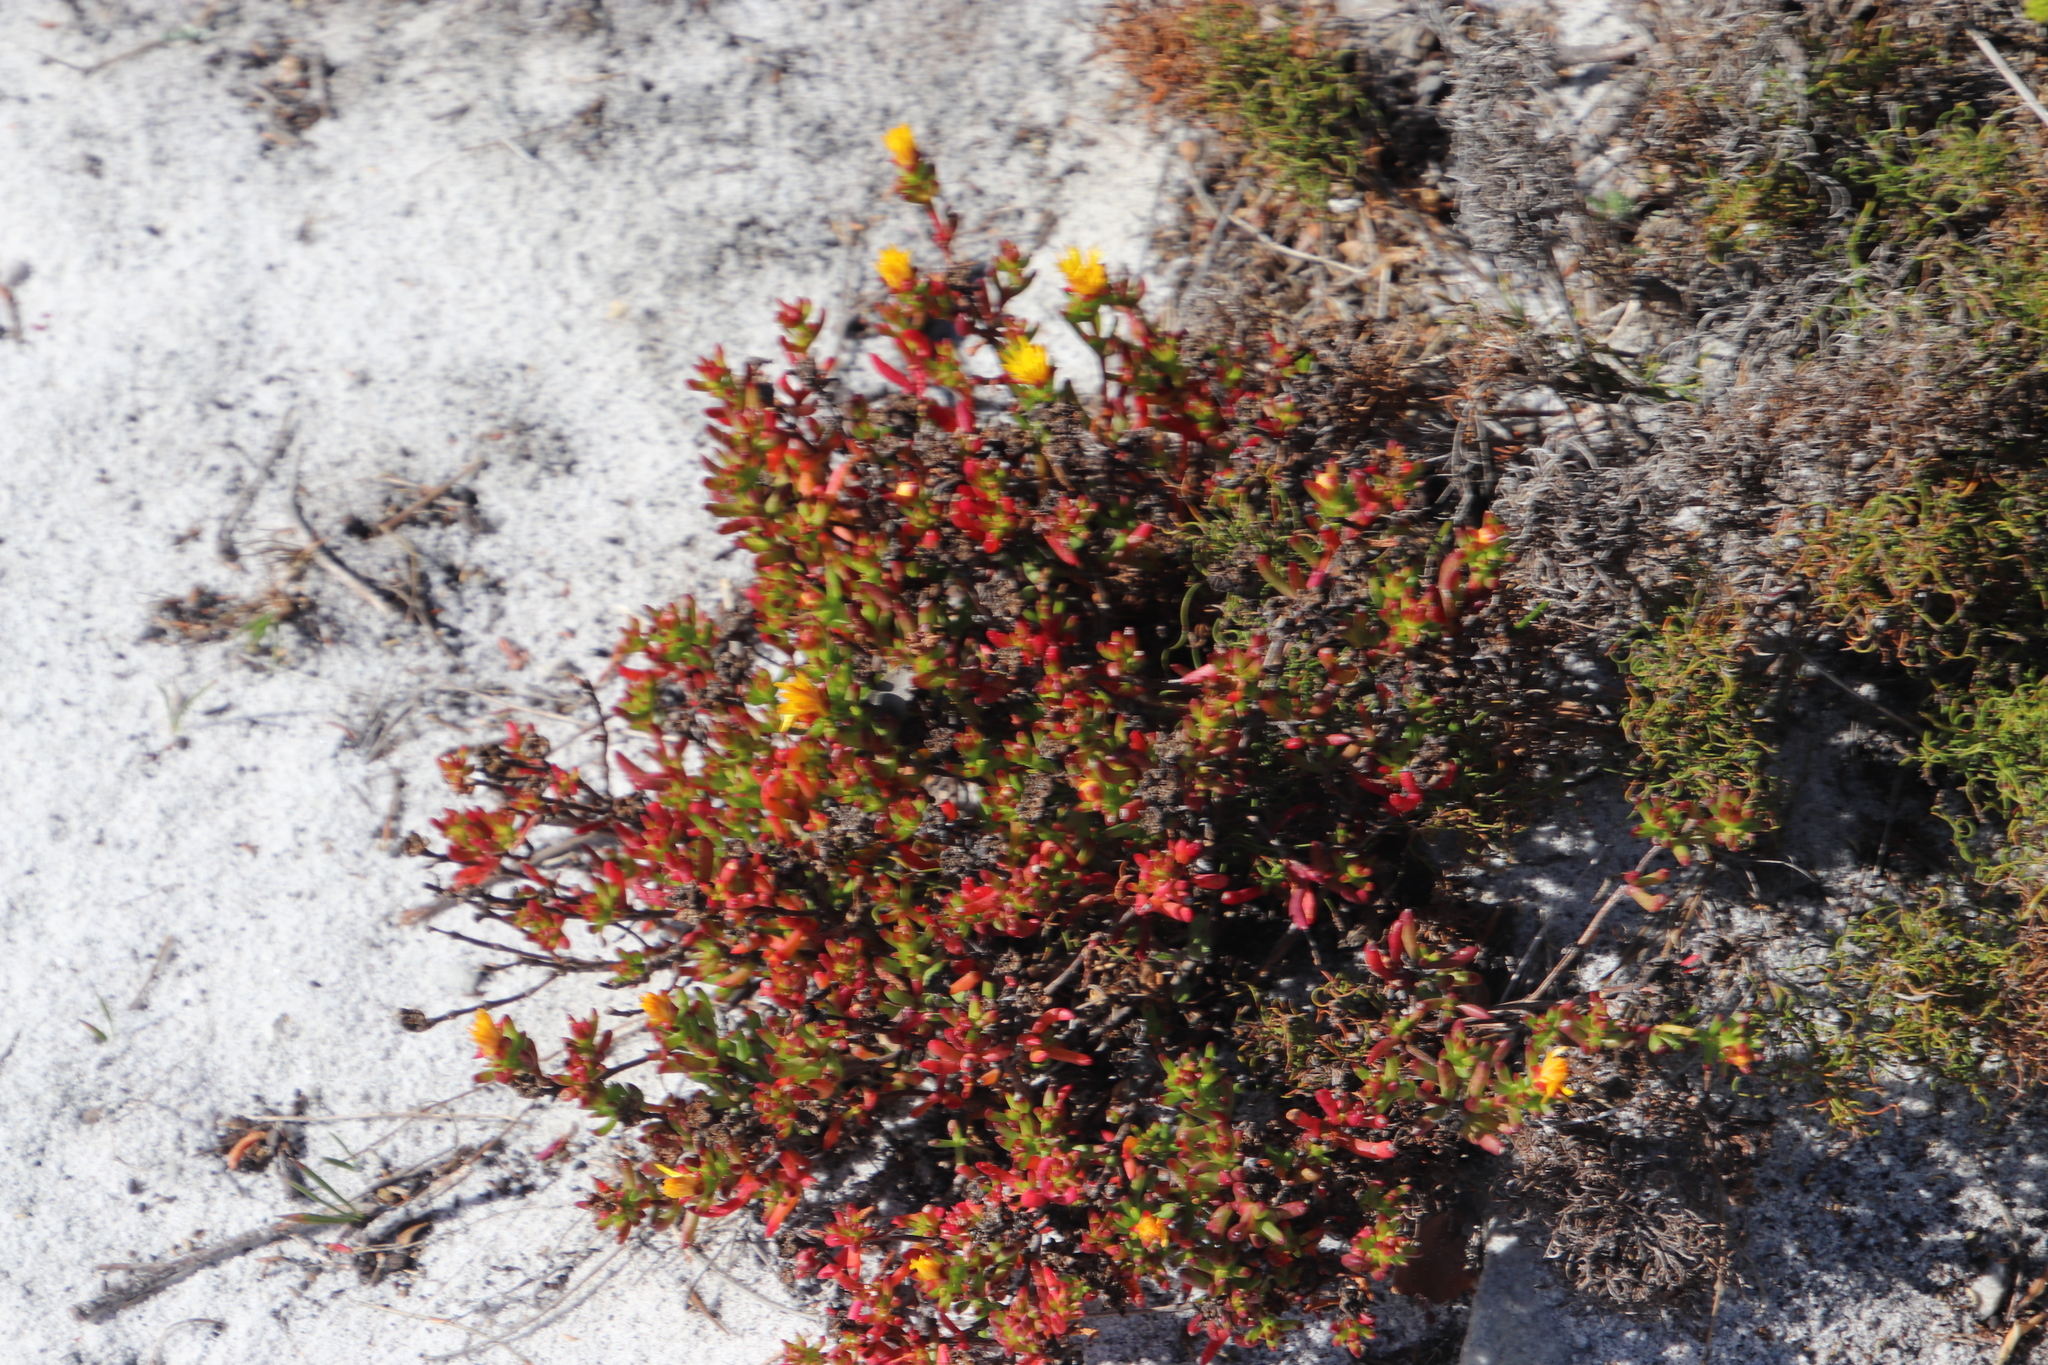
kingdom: Plantae
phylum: Tracheophyta
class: Magnoliopsida
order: Caryophyllales
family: Aizoaceae
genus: Lampranthus
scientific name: Lampranthus promontorii
